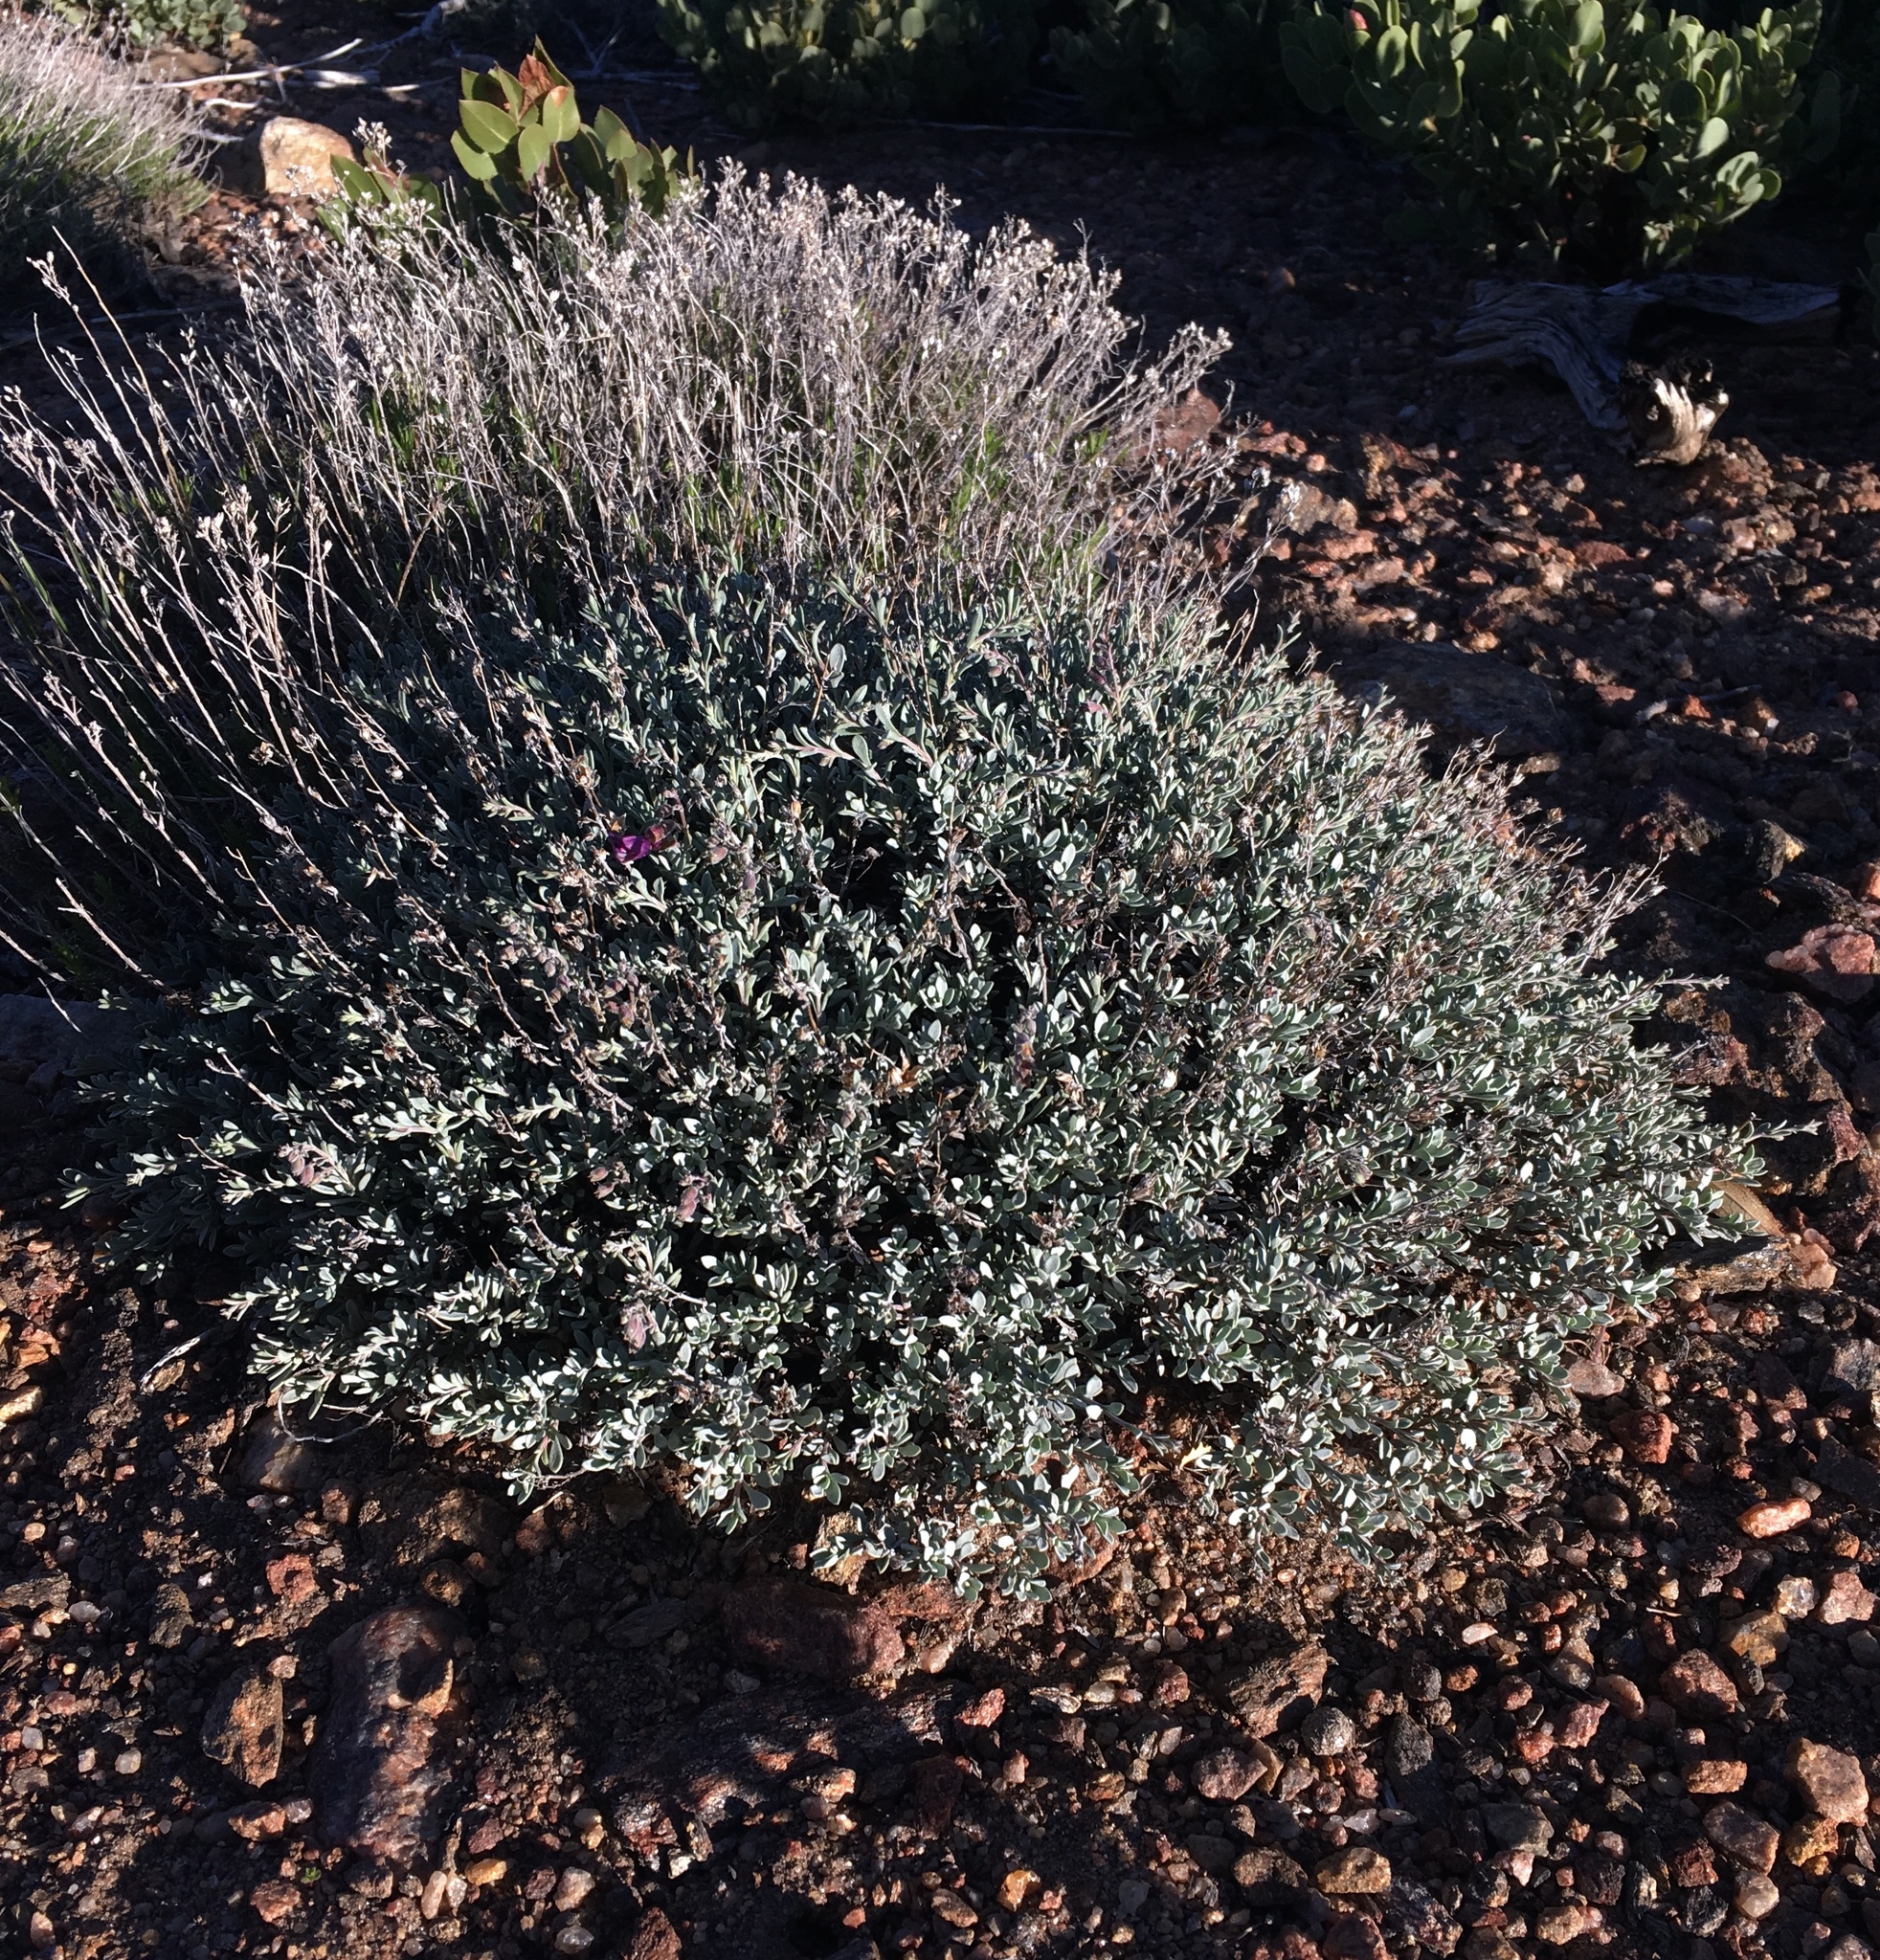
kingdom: Plantae
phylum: Tracheophyta
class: Magnoliopsida
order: Lamiales
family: Plantaginaceae
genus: Penstemon
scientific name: Penstemon californicus
